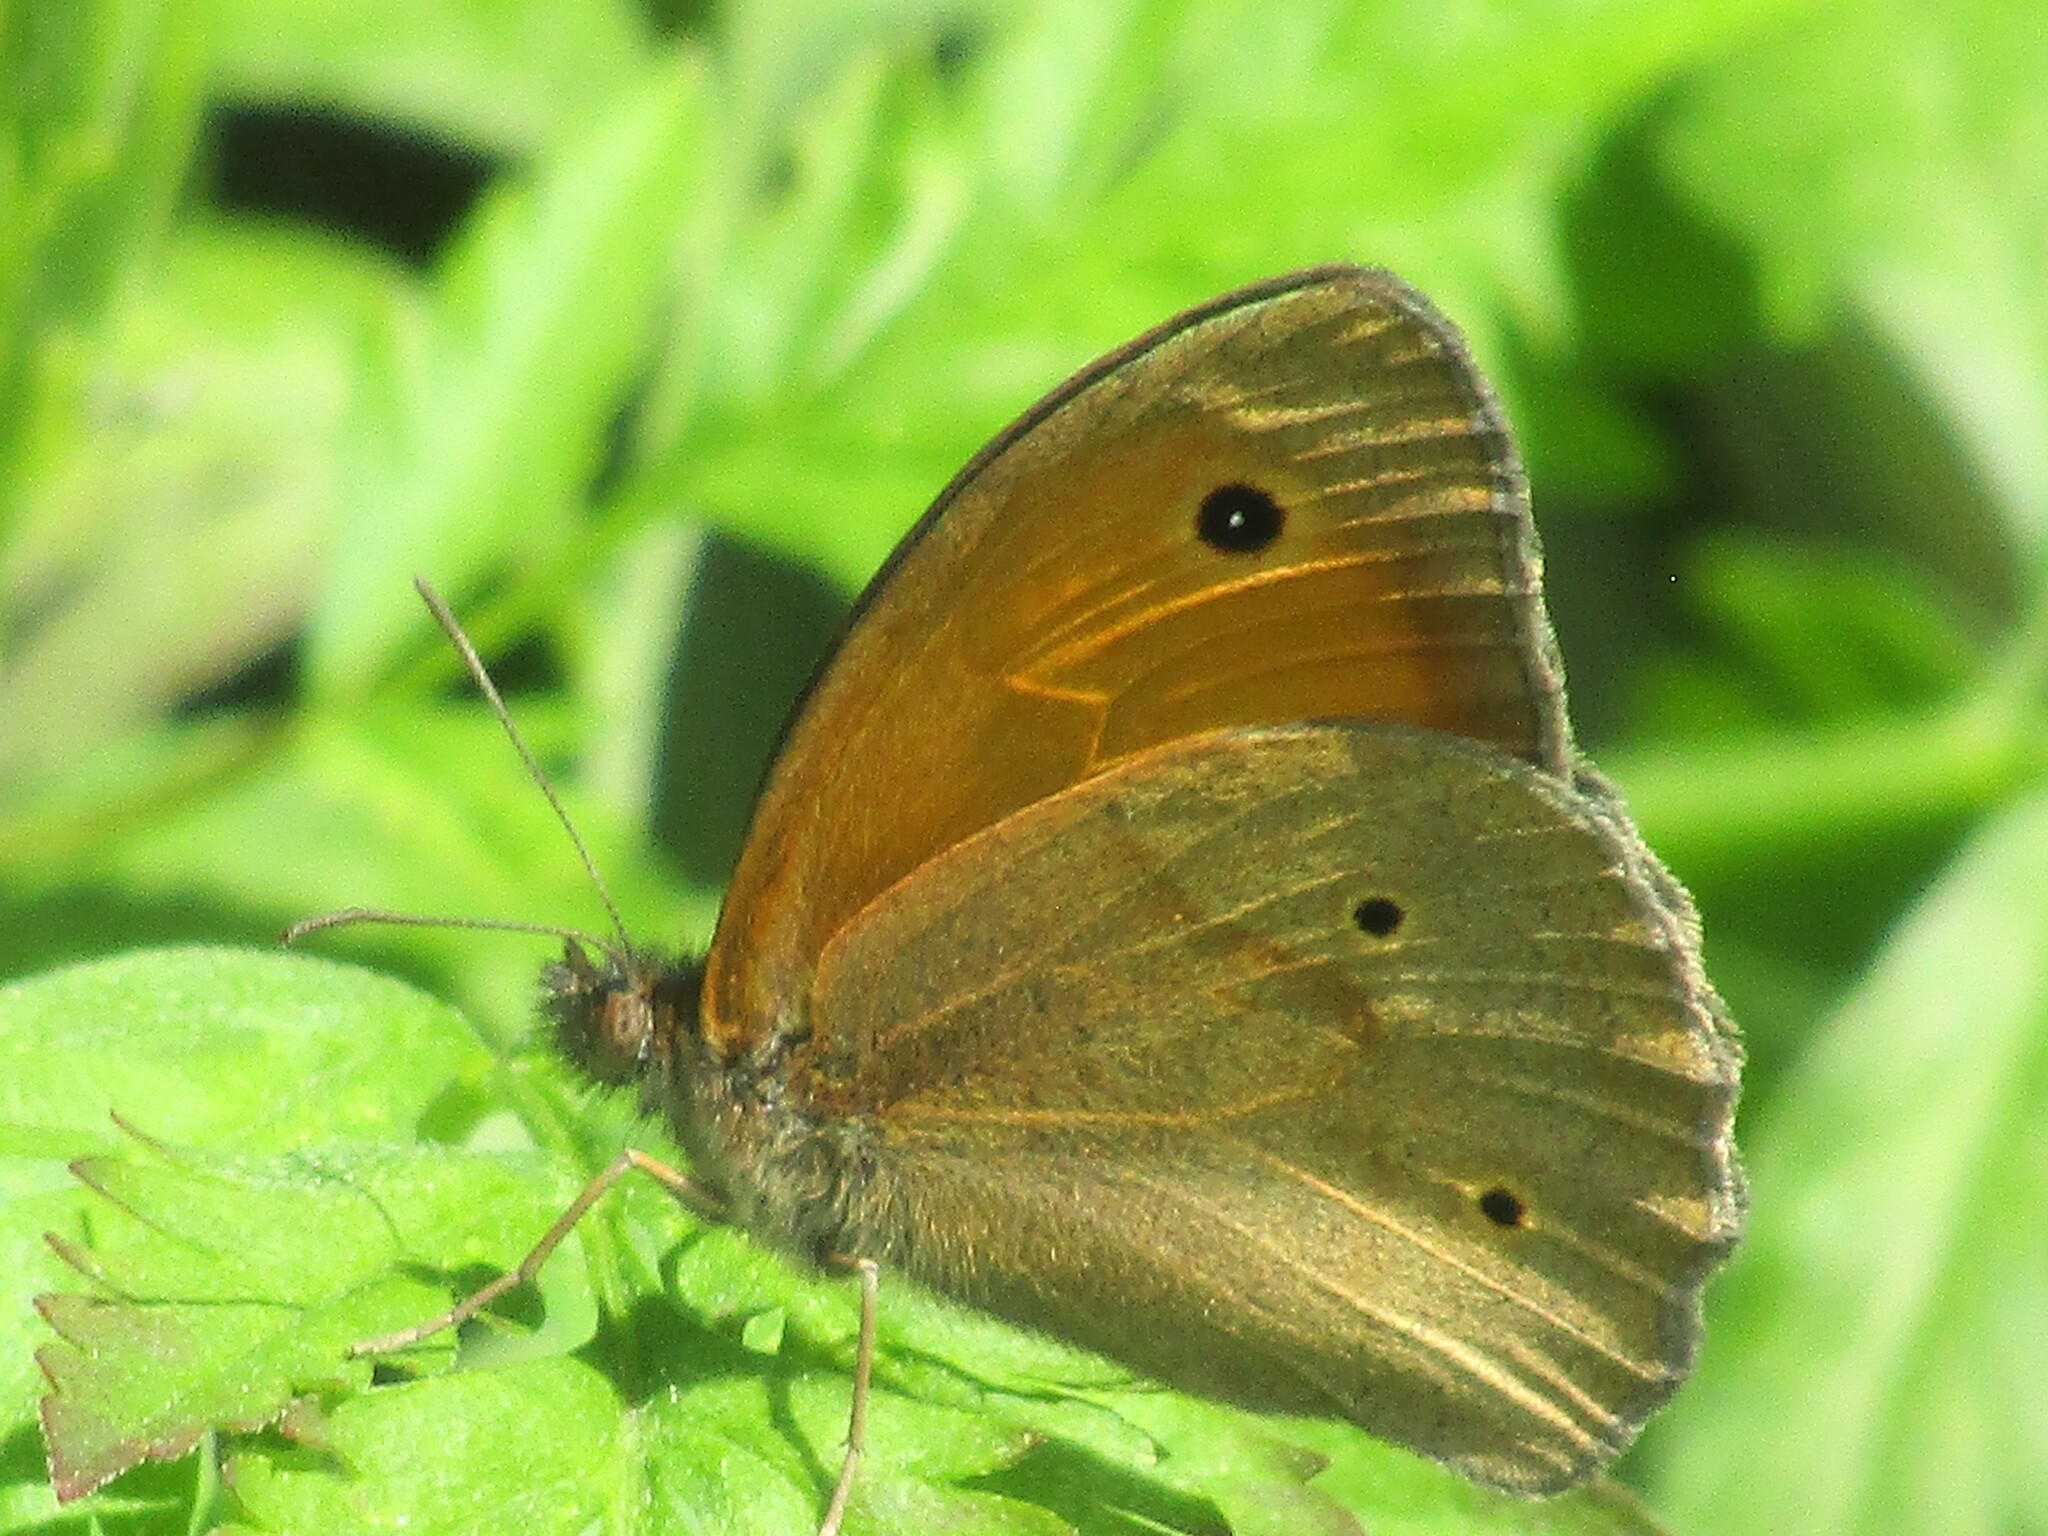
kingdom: Animalia
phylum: Arthropoda
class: Insecta
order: Lepidoptera
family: Nymphalidae
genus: Maniola
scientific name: Maniola jurtina
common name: Meadow brown
